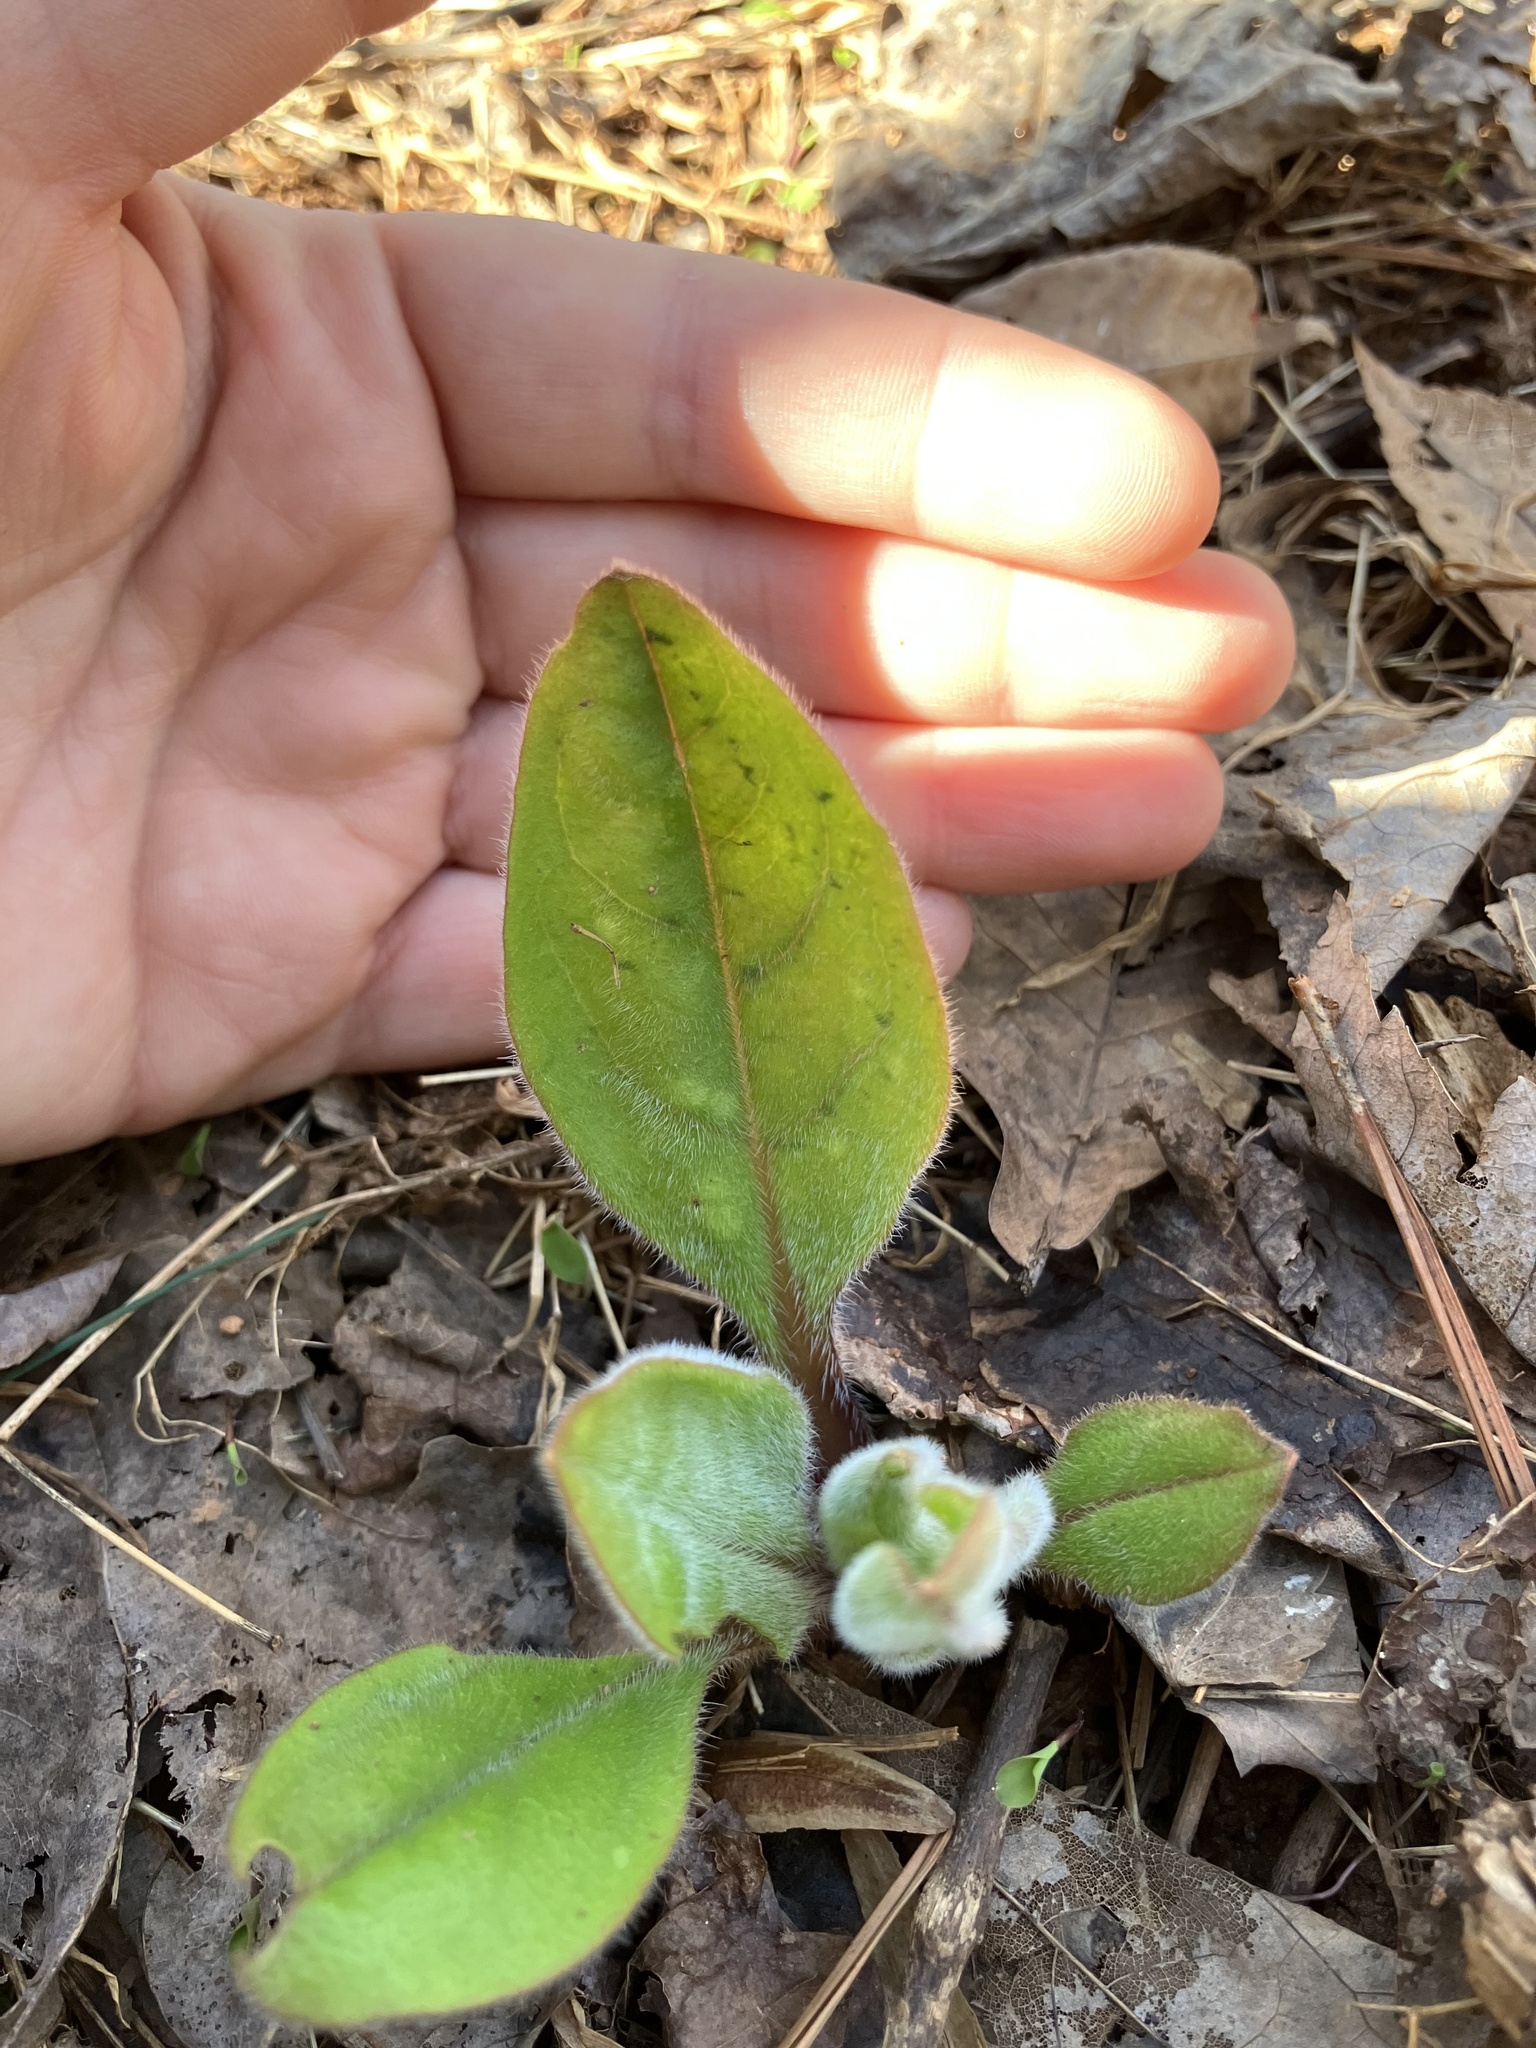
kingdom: Plantae
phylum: Tracheophyta
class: Magnoliopsida
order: Boraginales
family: Boraginaceae
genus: Andersonglossum
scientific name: Andersonglossum virginianum
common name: Wild comfrey
